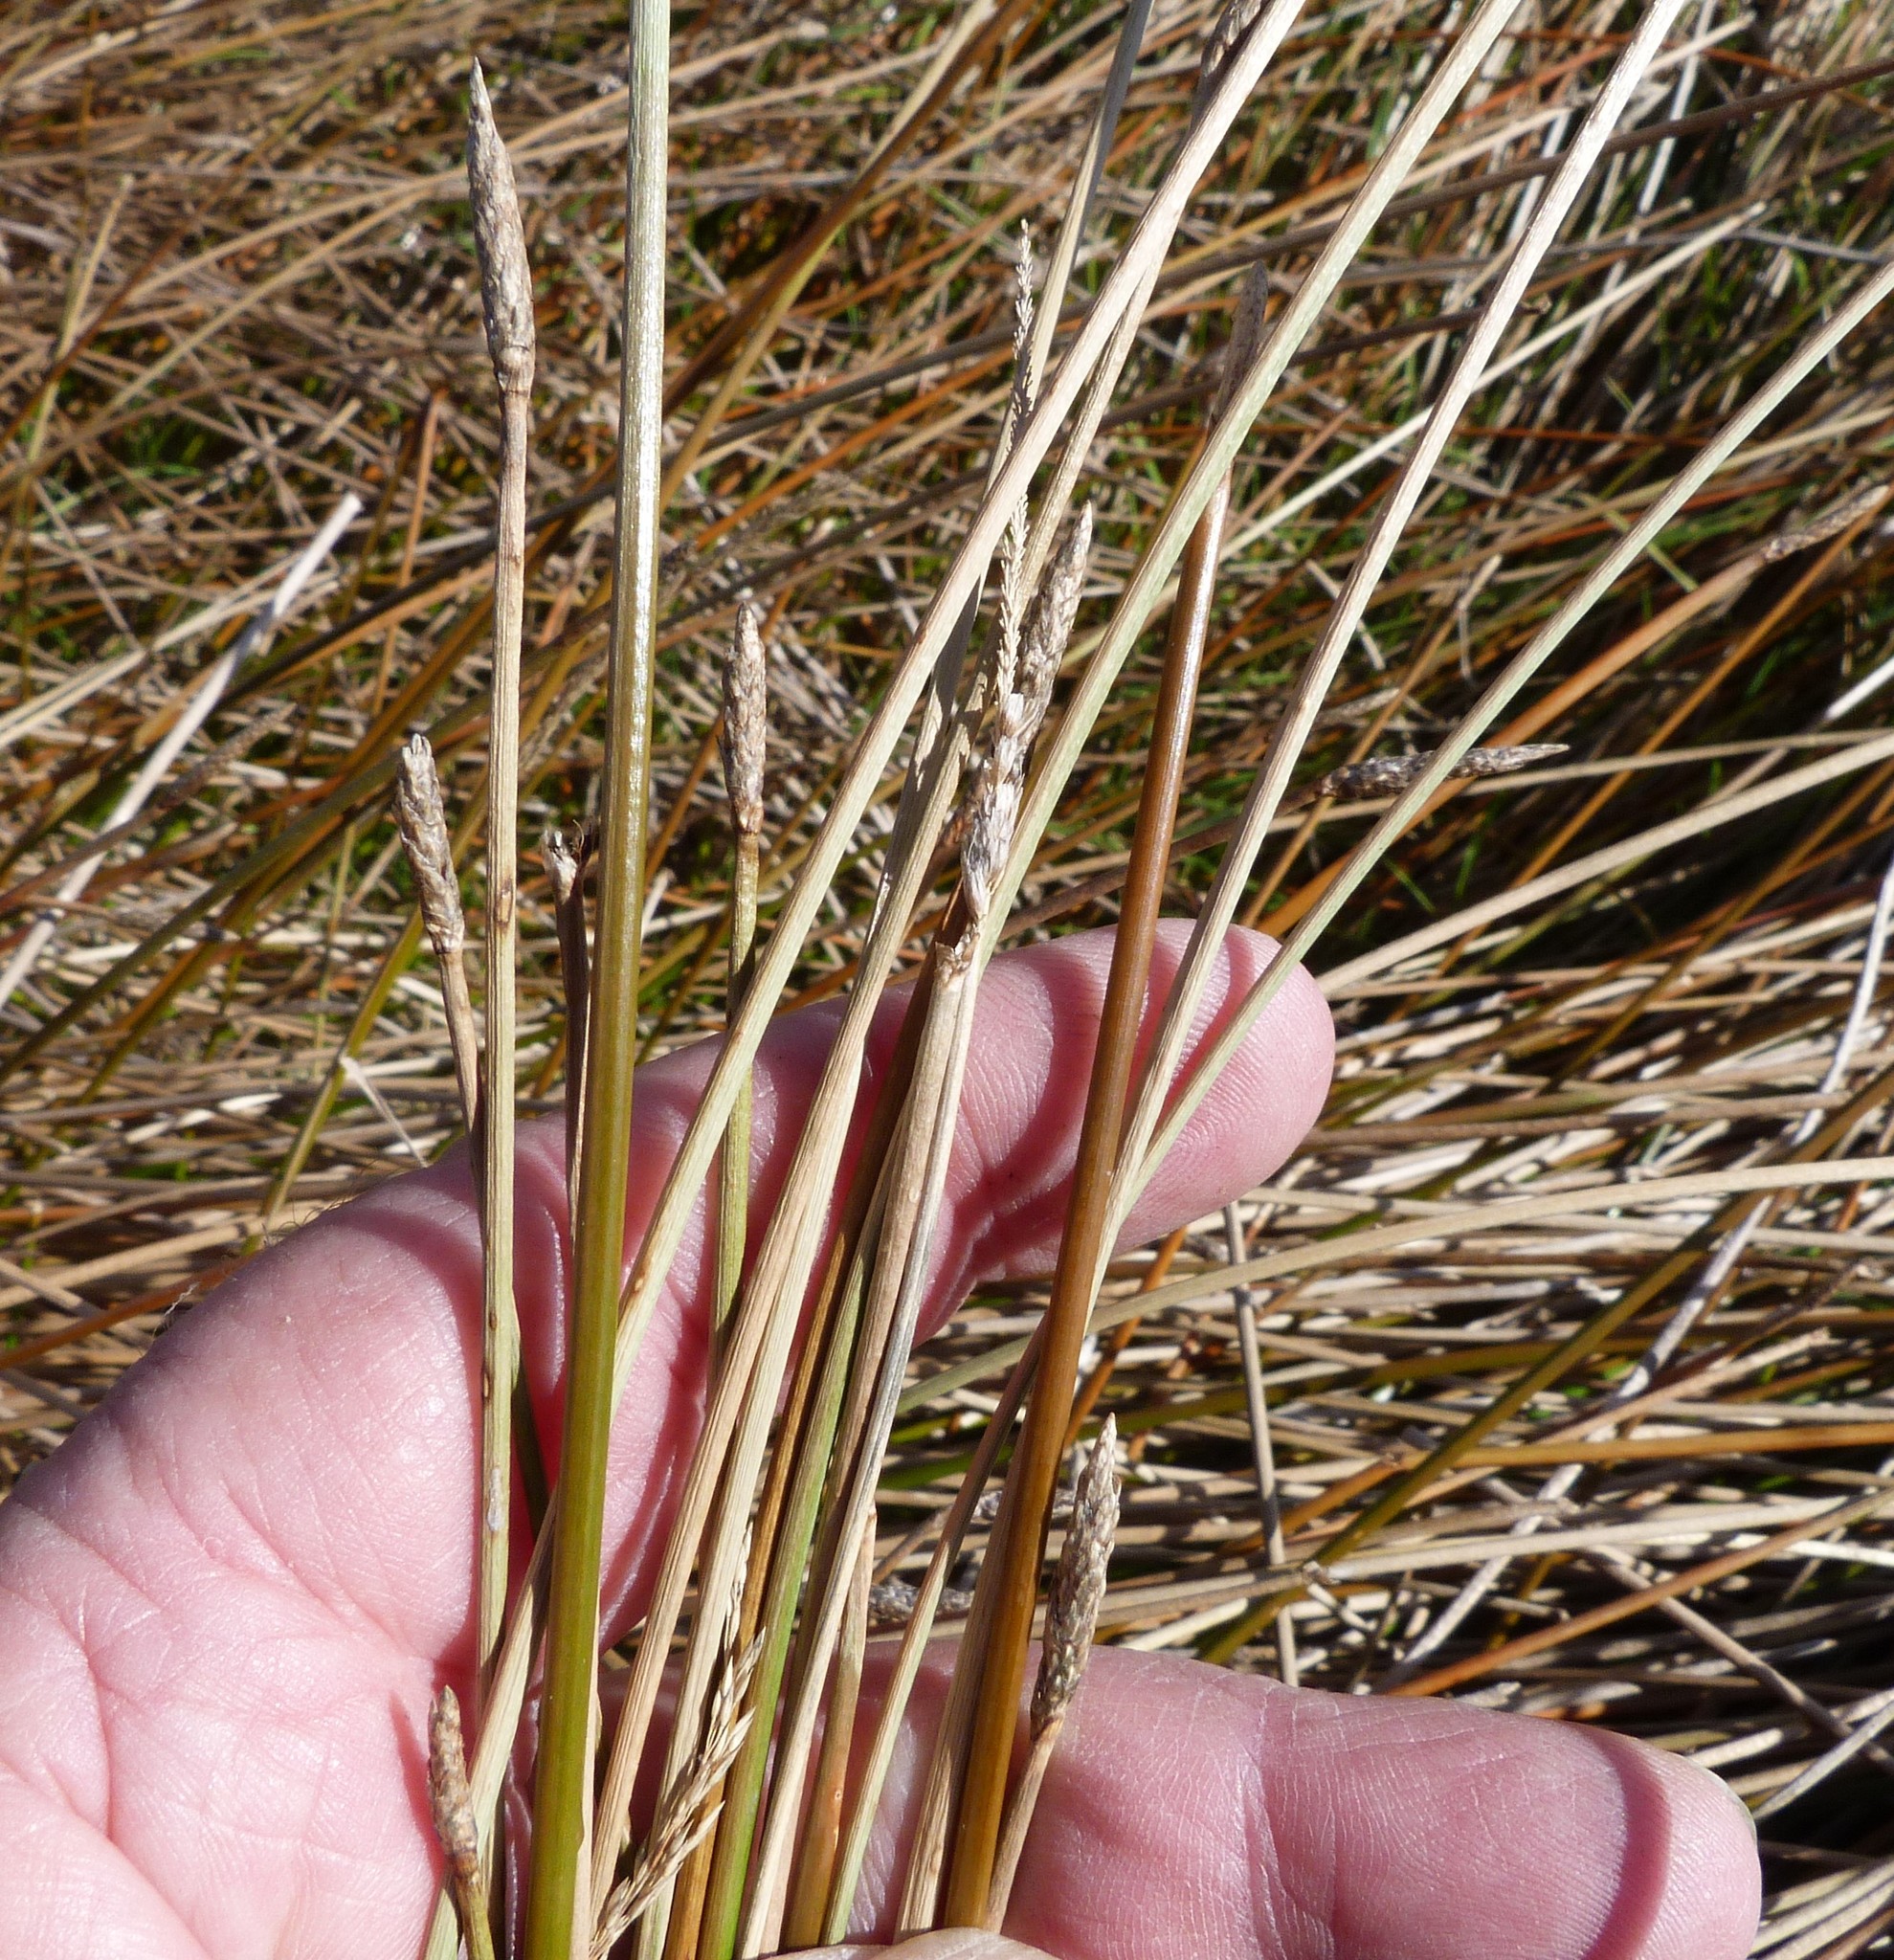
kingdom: Plantae
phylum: Tracheophyta
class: Liliopsida
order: Poales
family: Cyperaceae
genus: Eleocharis
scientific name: Eleocharis acuta
